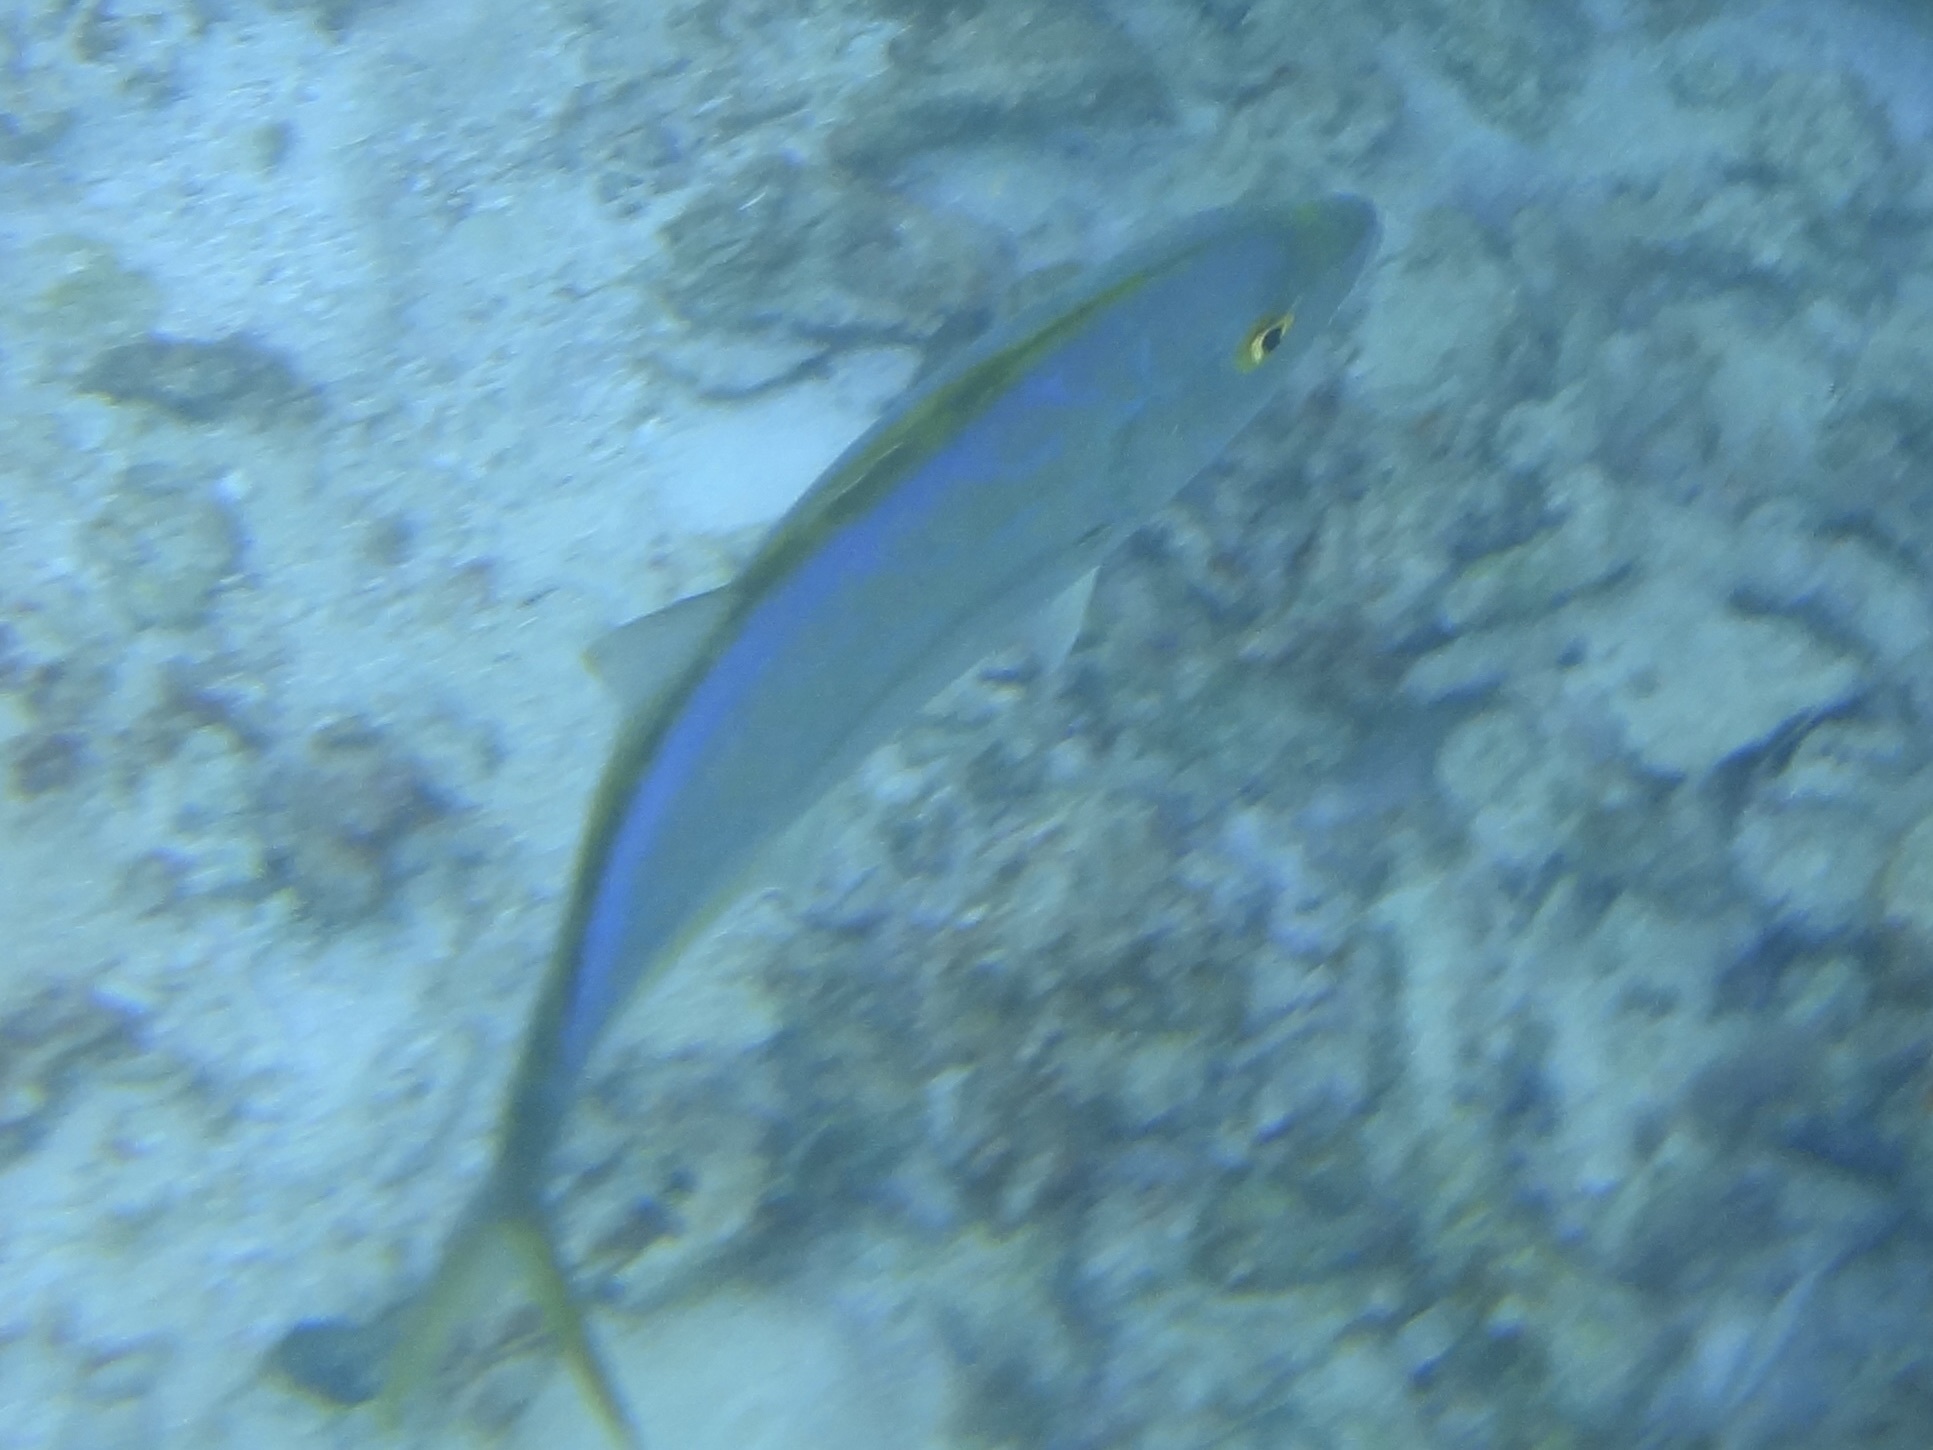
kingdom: Animalia
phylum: Chordata
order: Perciformes
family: Carangidae
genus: Carangoides
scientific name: Carangoides bartholomaei
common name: Yellow jack
